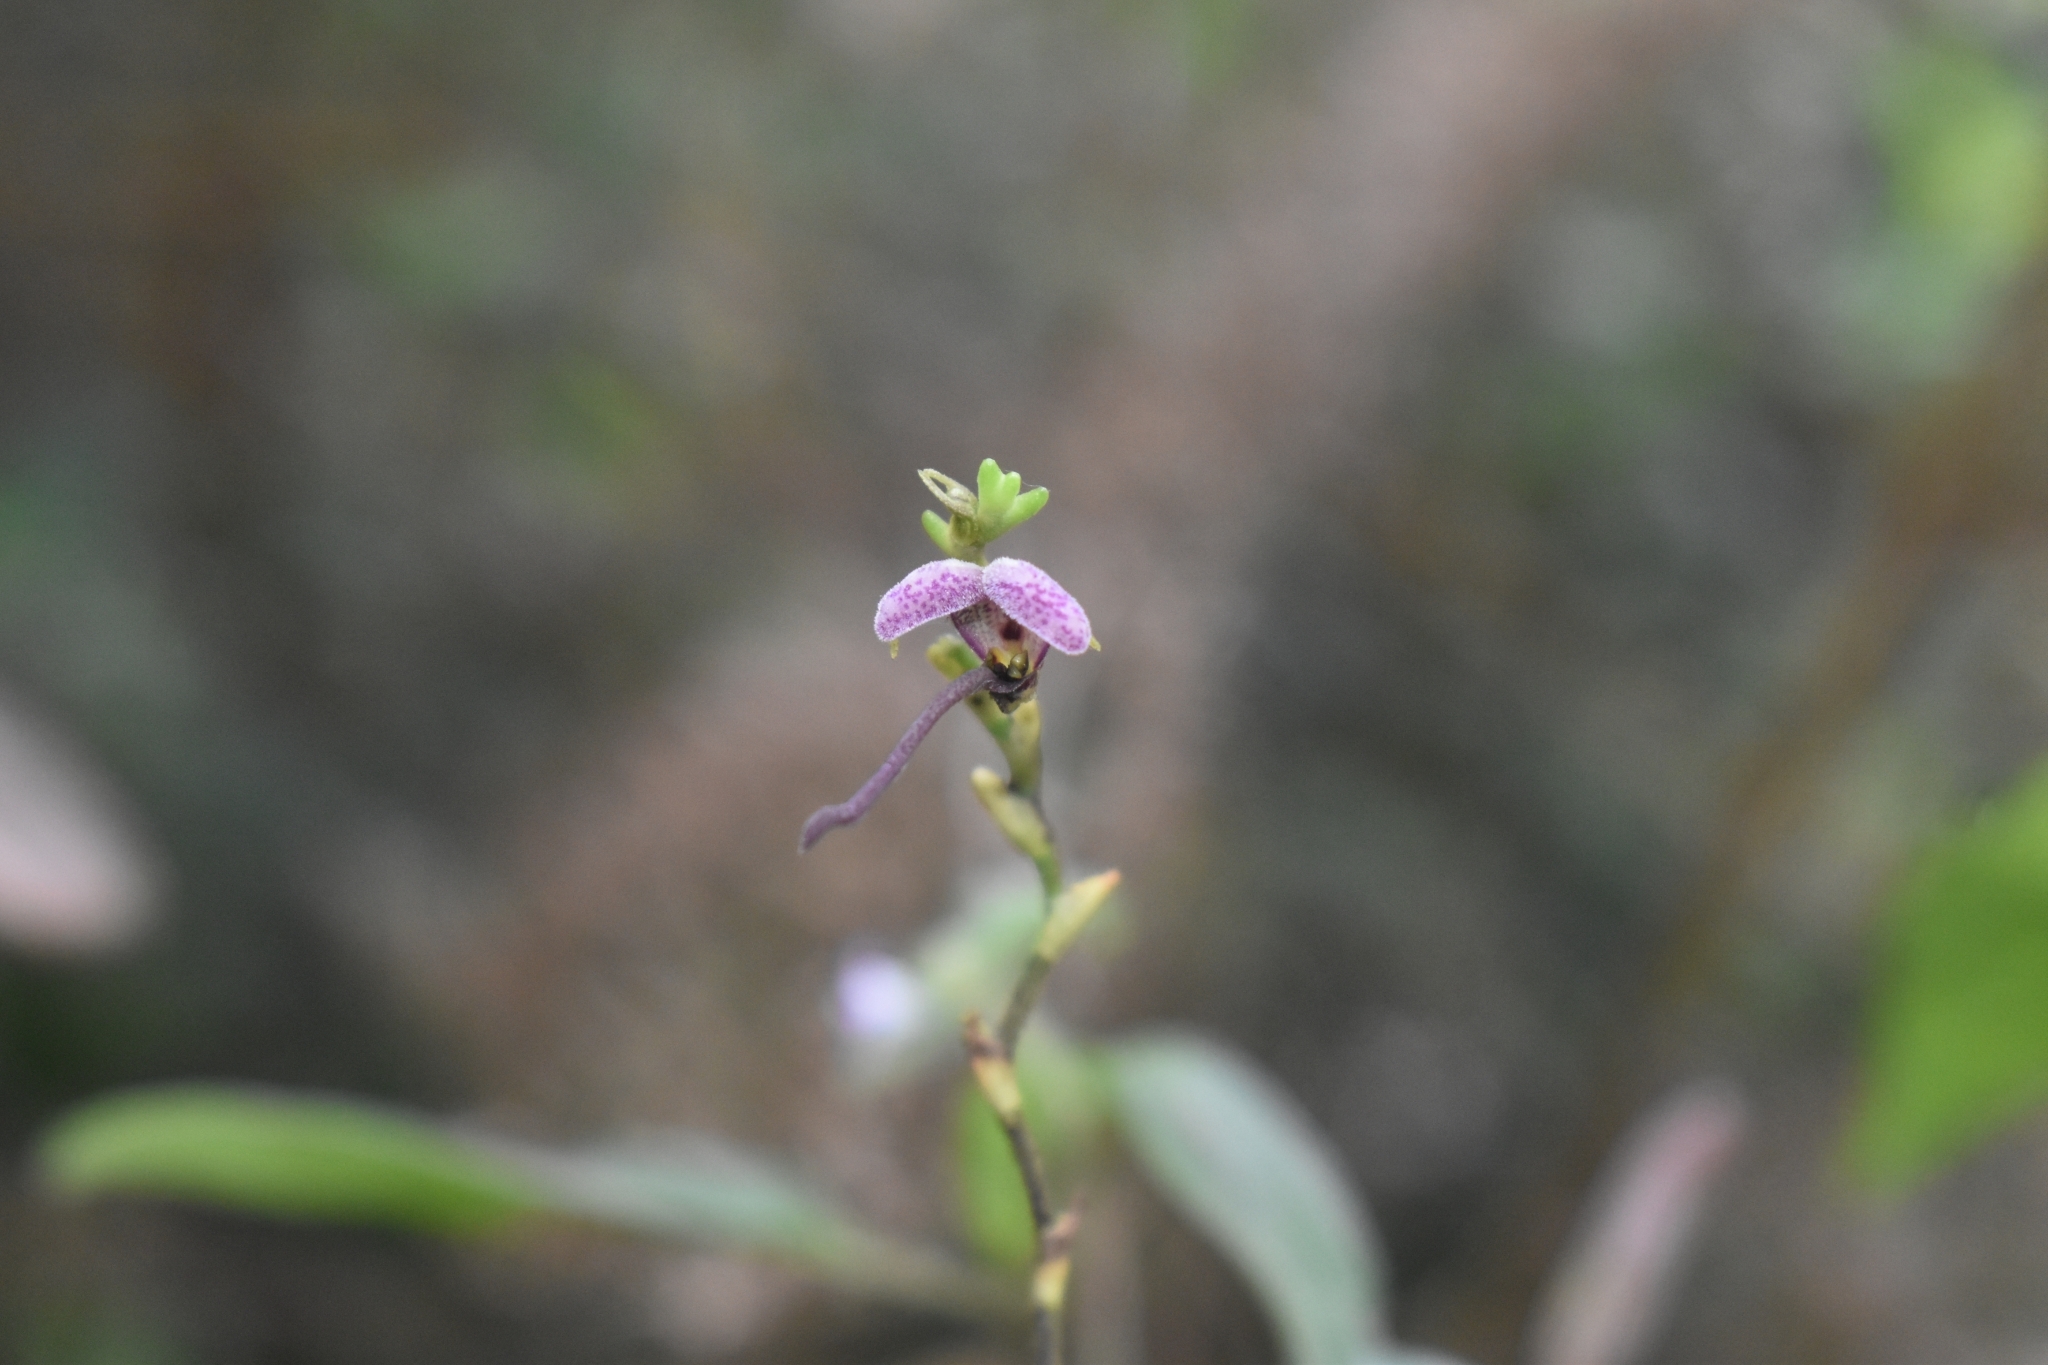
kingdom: Plantae
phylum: Tracheophyta
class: Liliopsida
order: Asparagales
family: Orchidaceae
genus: Scaphosepalum
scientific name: Scaphosepalum lima
